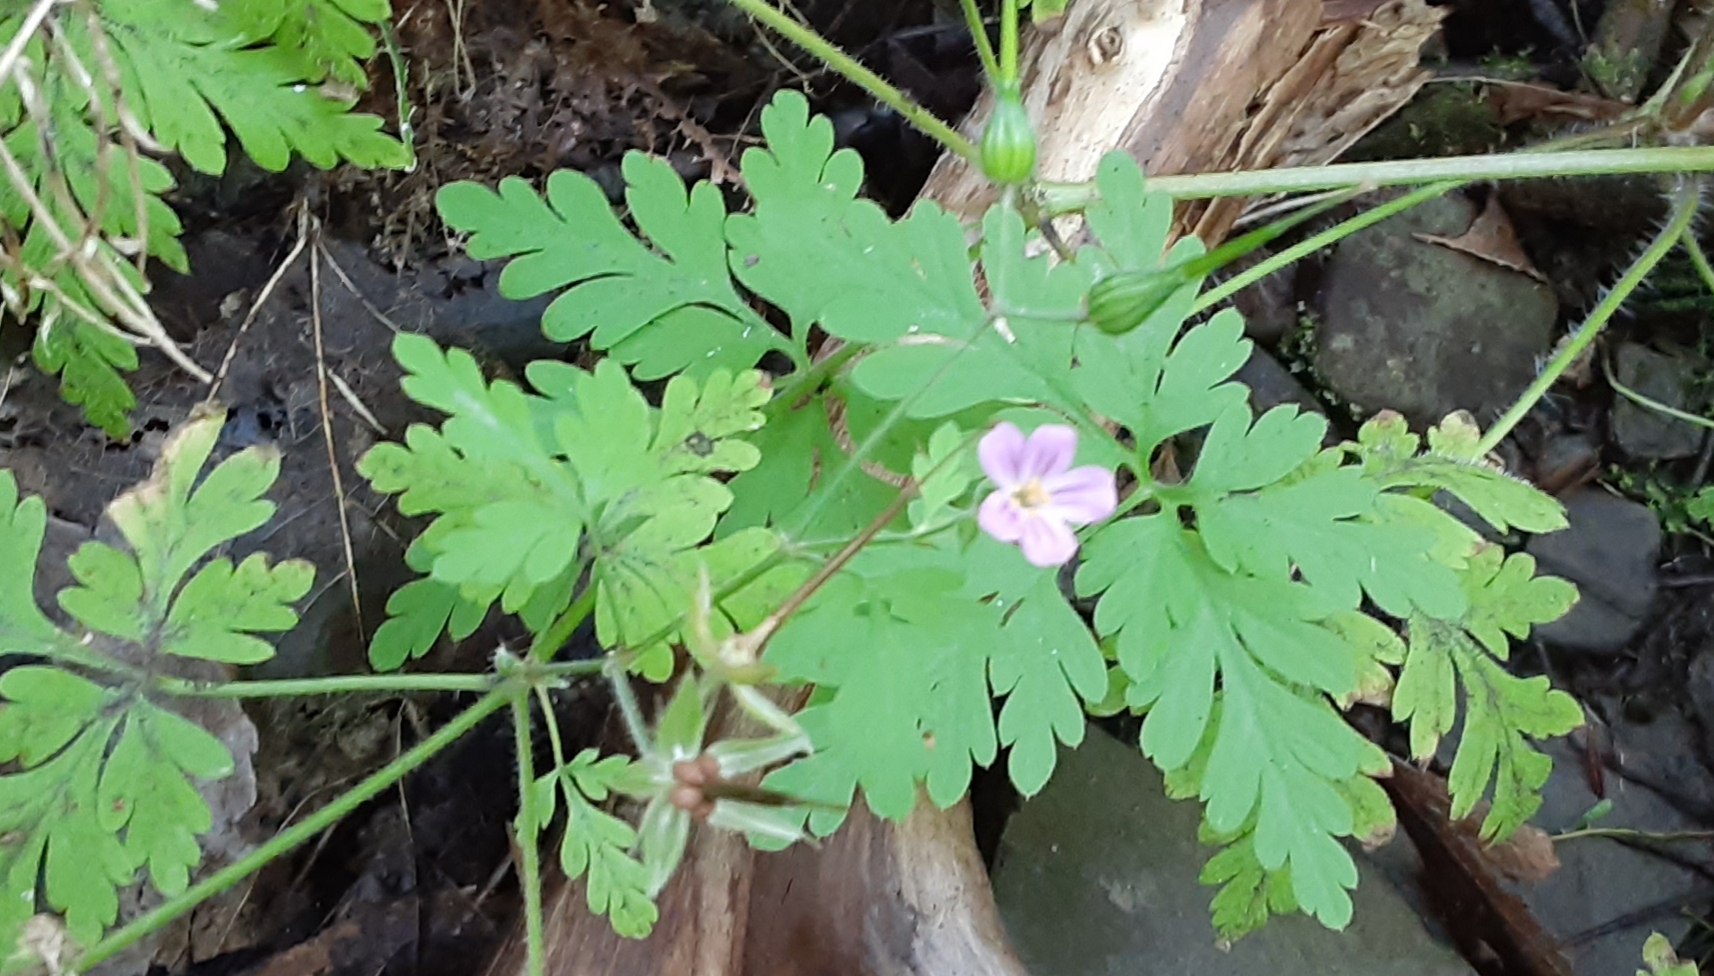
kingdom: Plantae
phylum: Tracheophyta
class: Magnoliopsida
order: Geraniales
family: Geraniaceae
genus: Geranium
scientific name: Geranium robertianum
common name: Herb-robert
